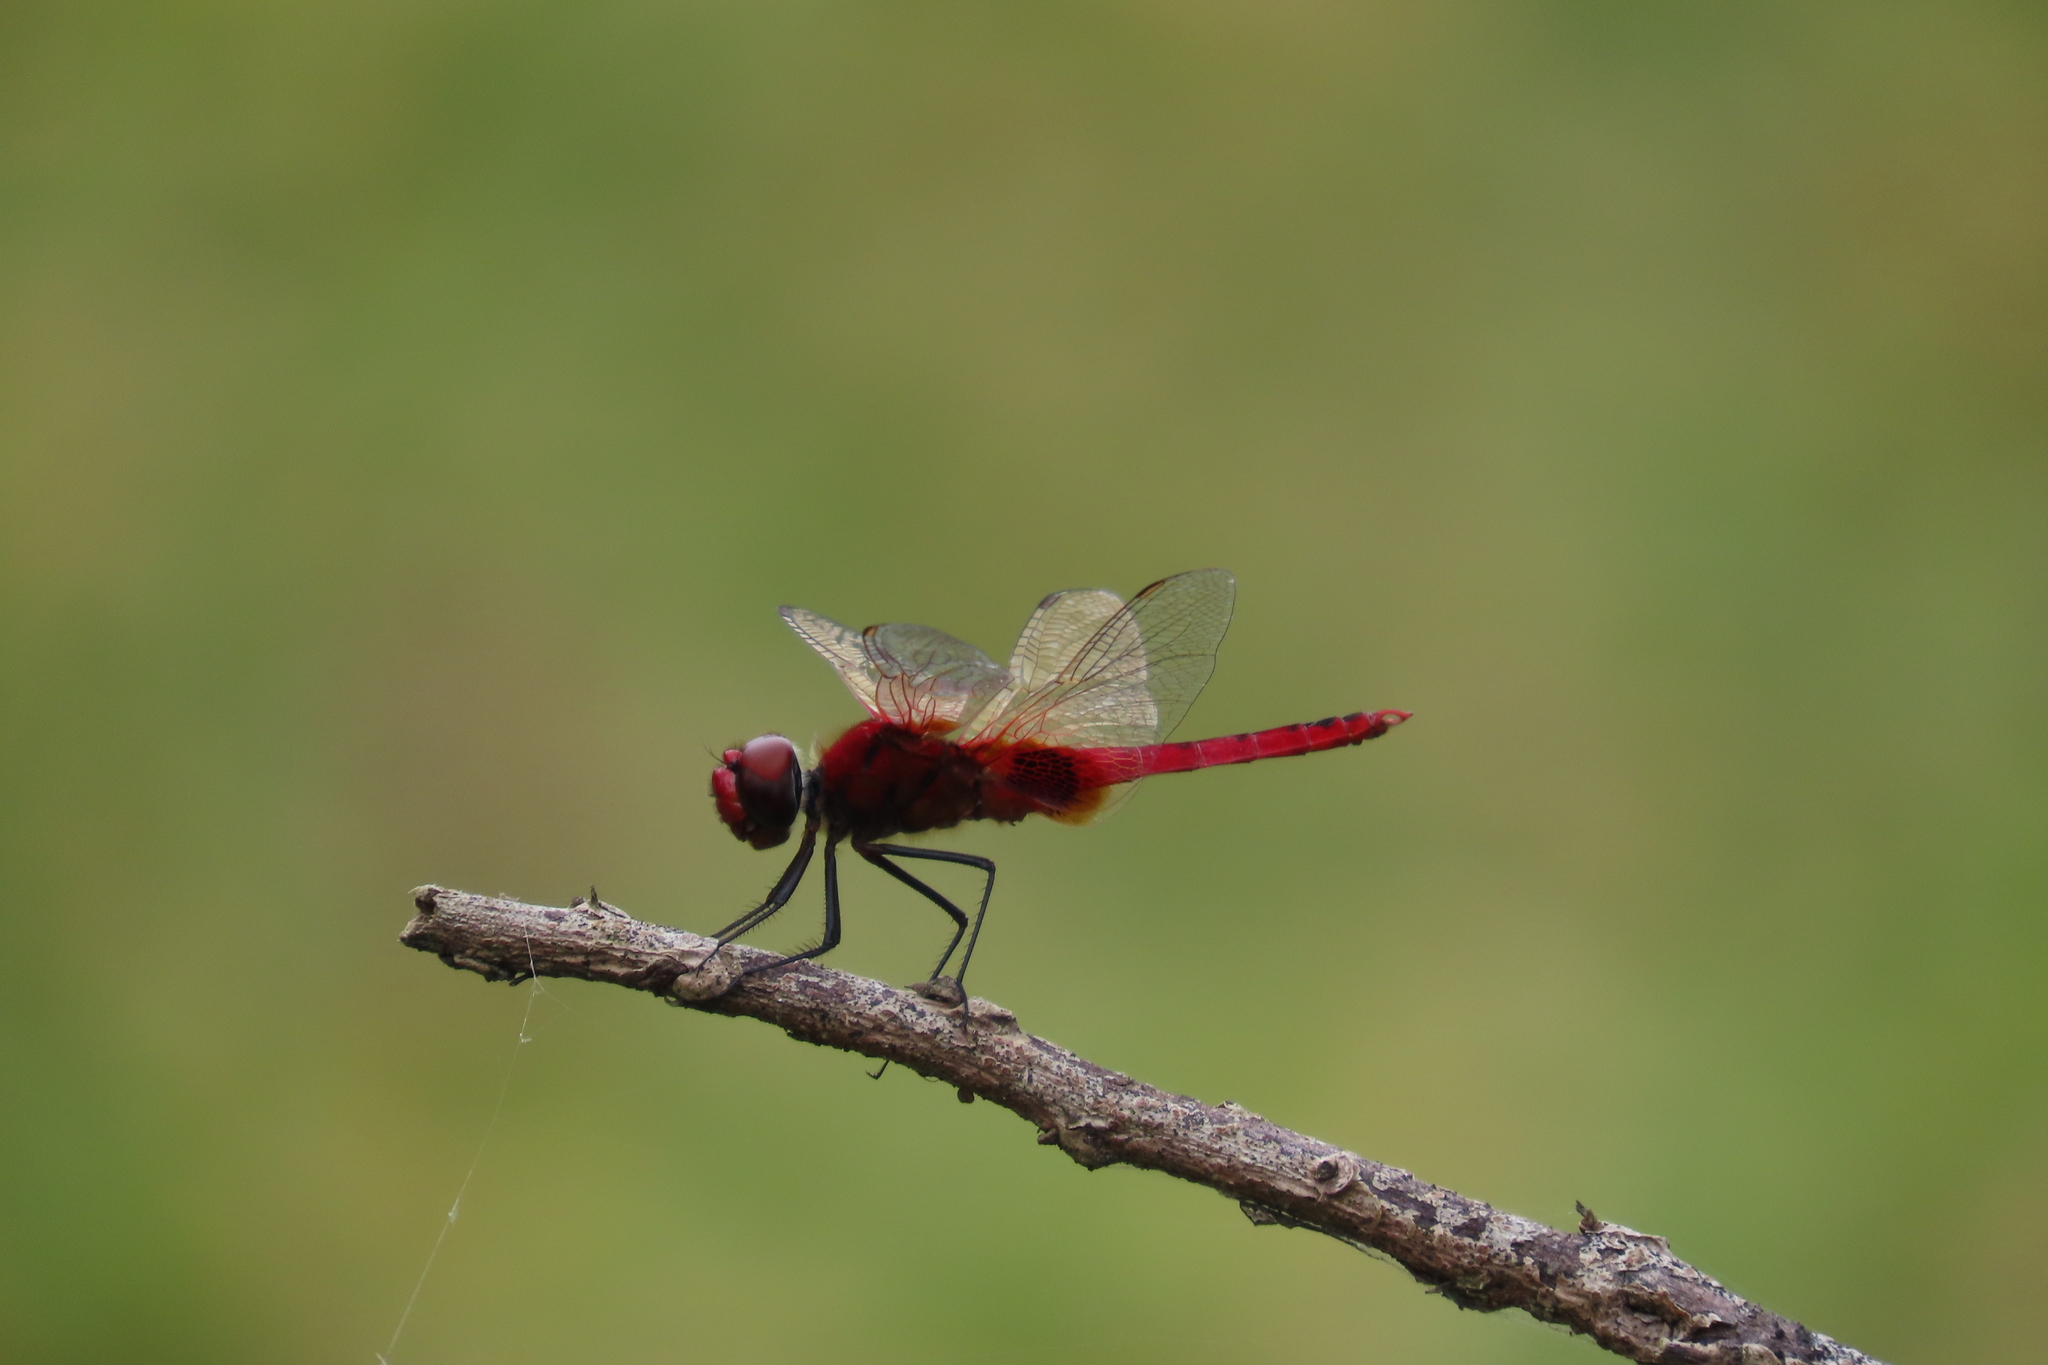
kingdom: Animalia
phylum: Arthropoda
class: Insecta
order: Odonata
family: Libellulidae
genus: Urothemis
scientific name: Urothemis signata
